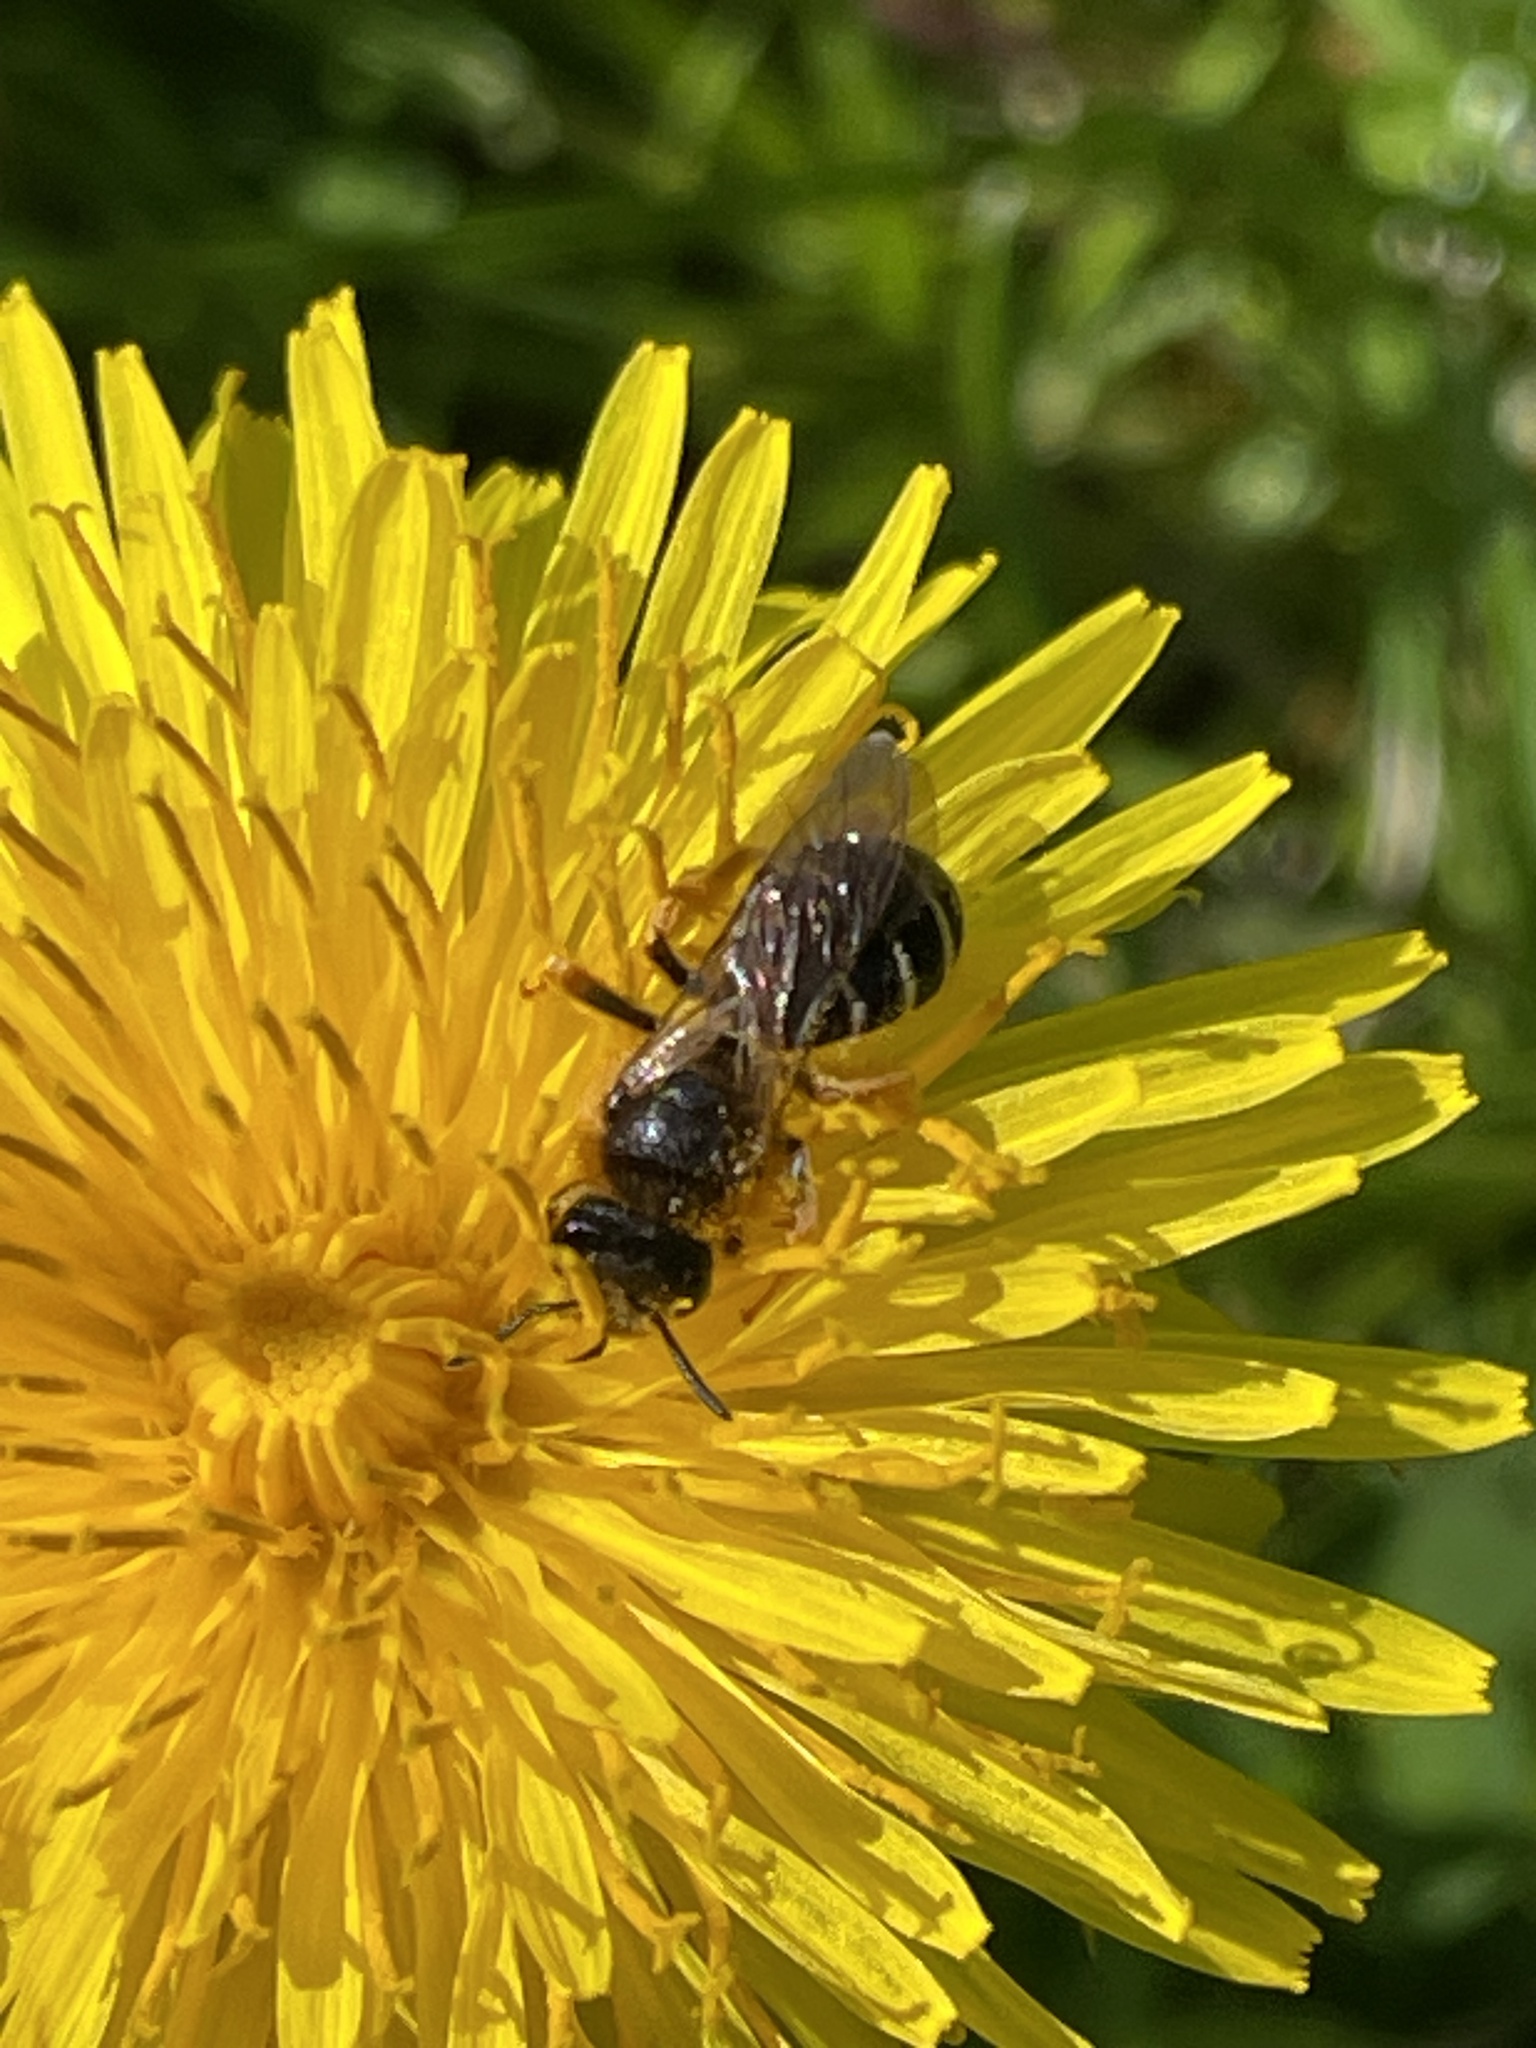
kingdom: Animalia
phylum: Arthropoda
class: Insecta
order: Hymenoptera
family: Halictidae
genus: Halictus
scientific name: Halictus rubicundus
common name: Orange-legged furrow bee
